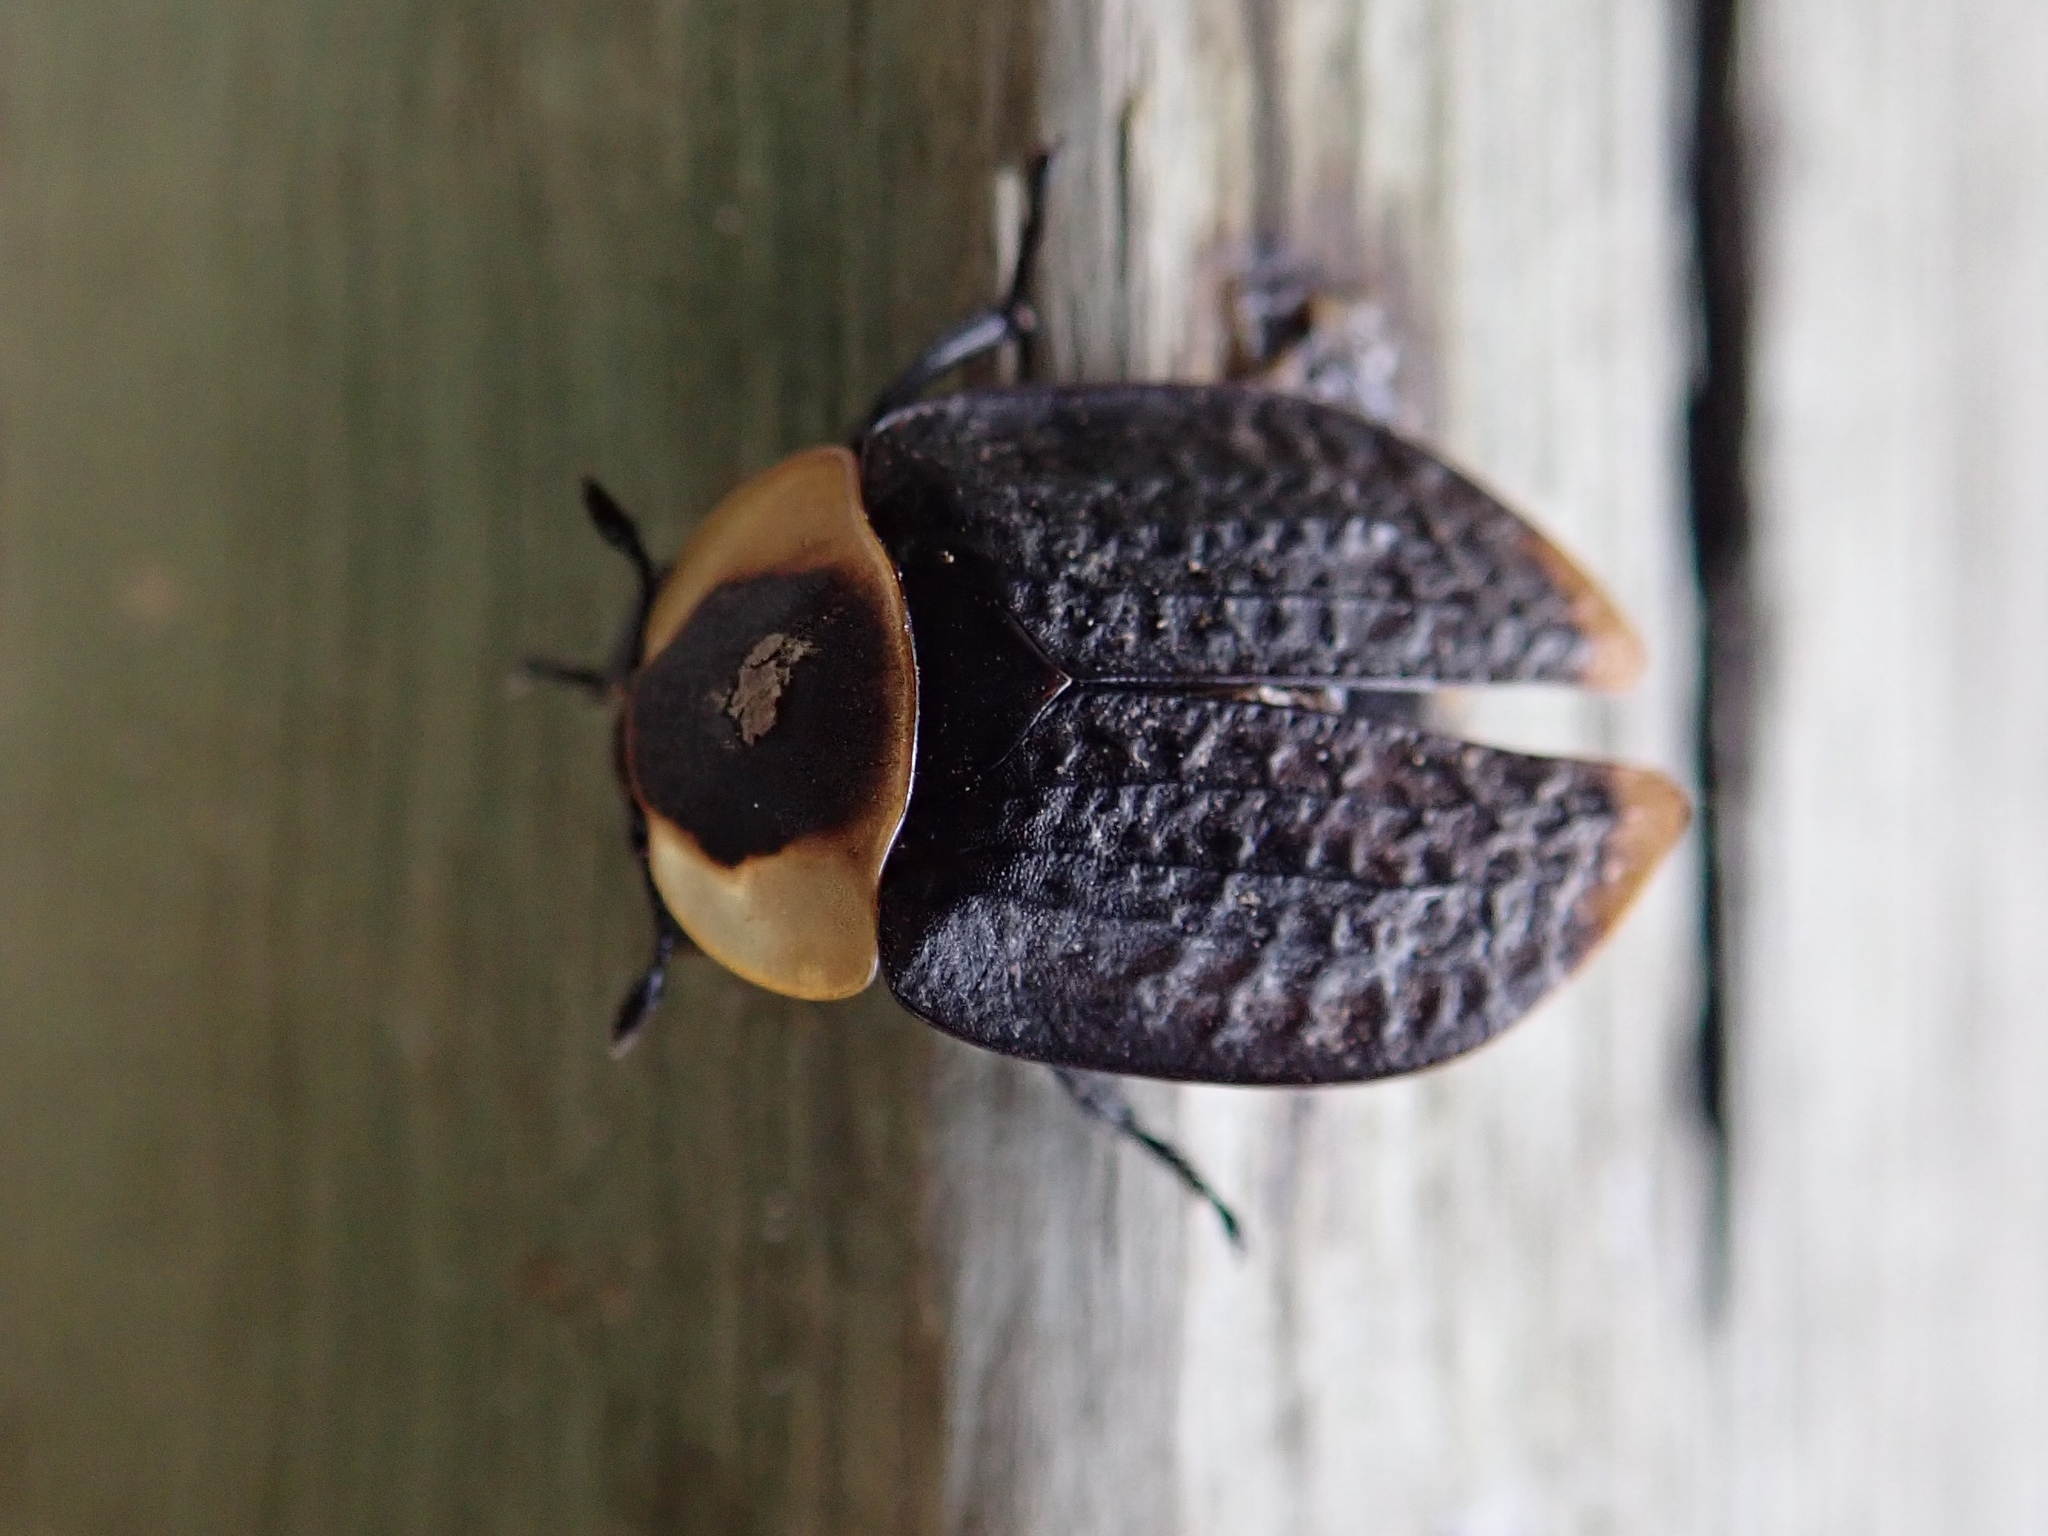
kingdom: Animalia
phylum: Arthropoda
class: Insecta
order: Coleoptera
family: Staphylinidae
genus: Necrophila
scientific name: Necrophila americana
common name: American carrion beetle
